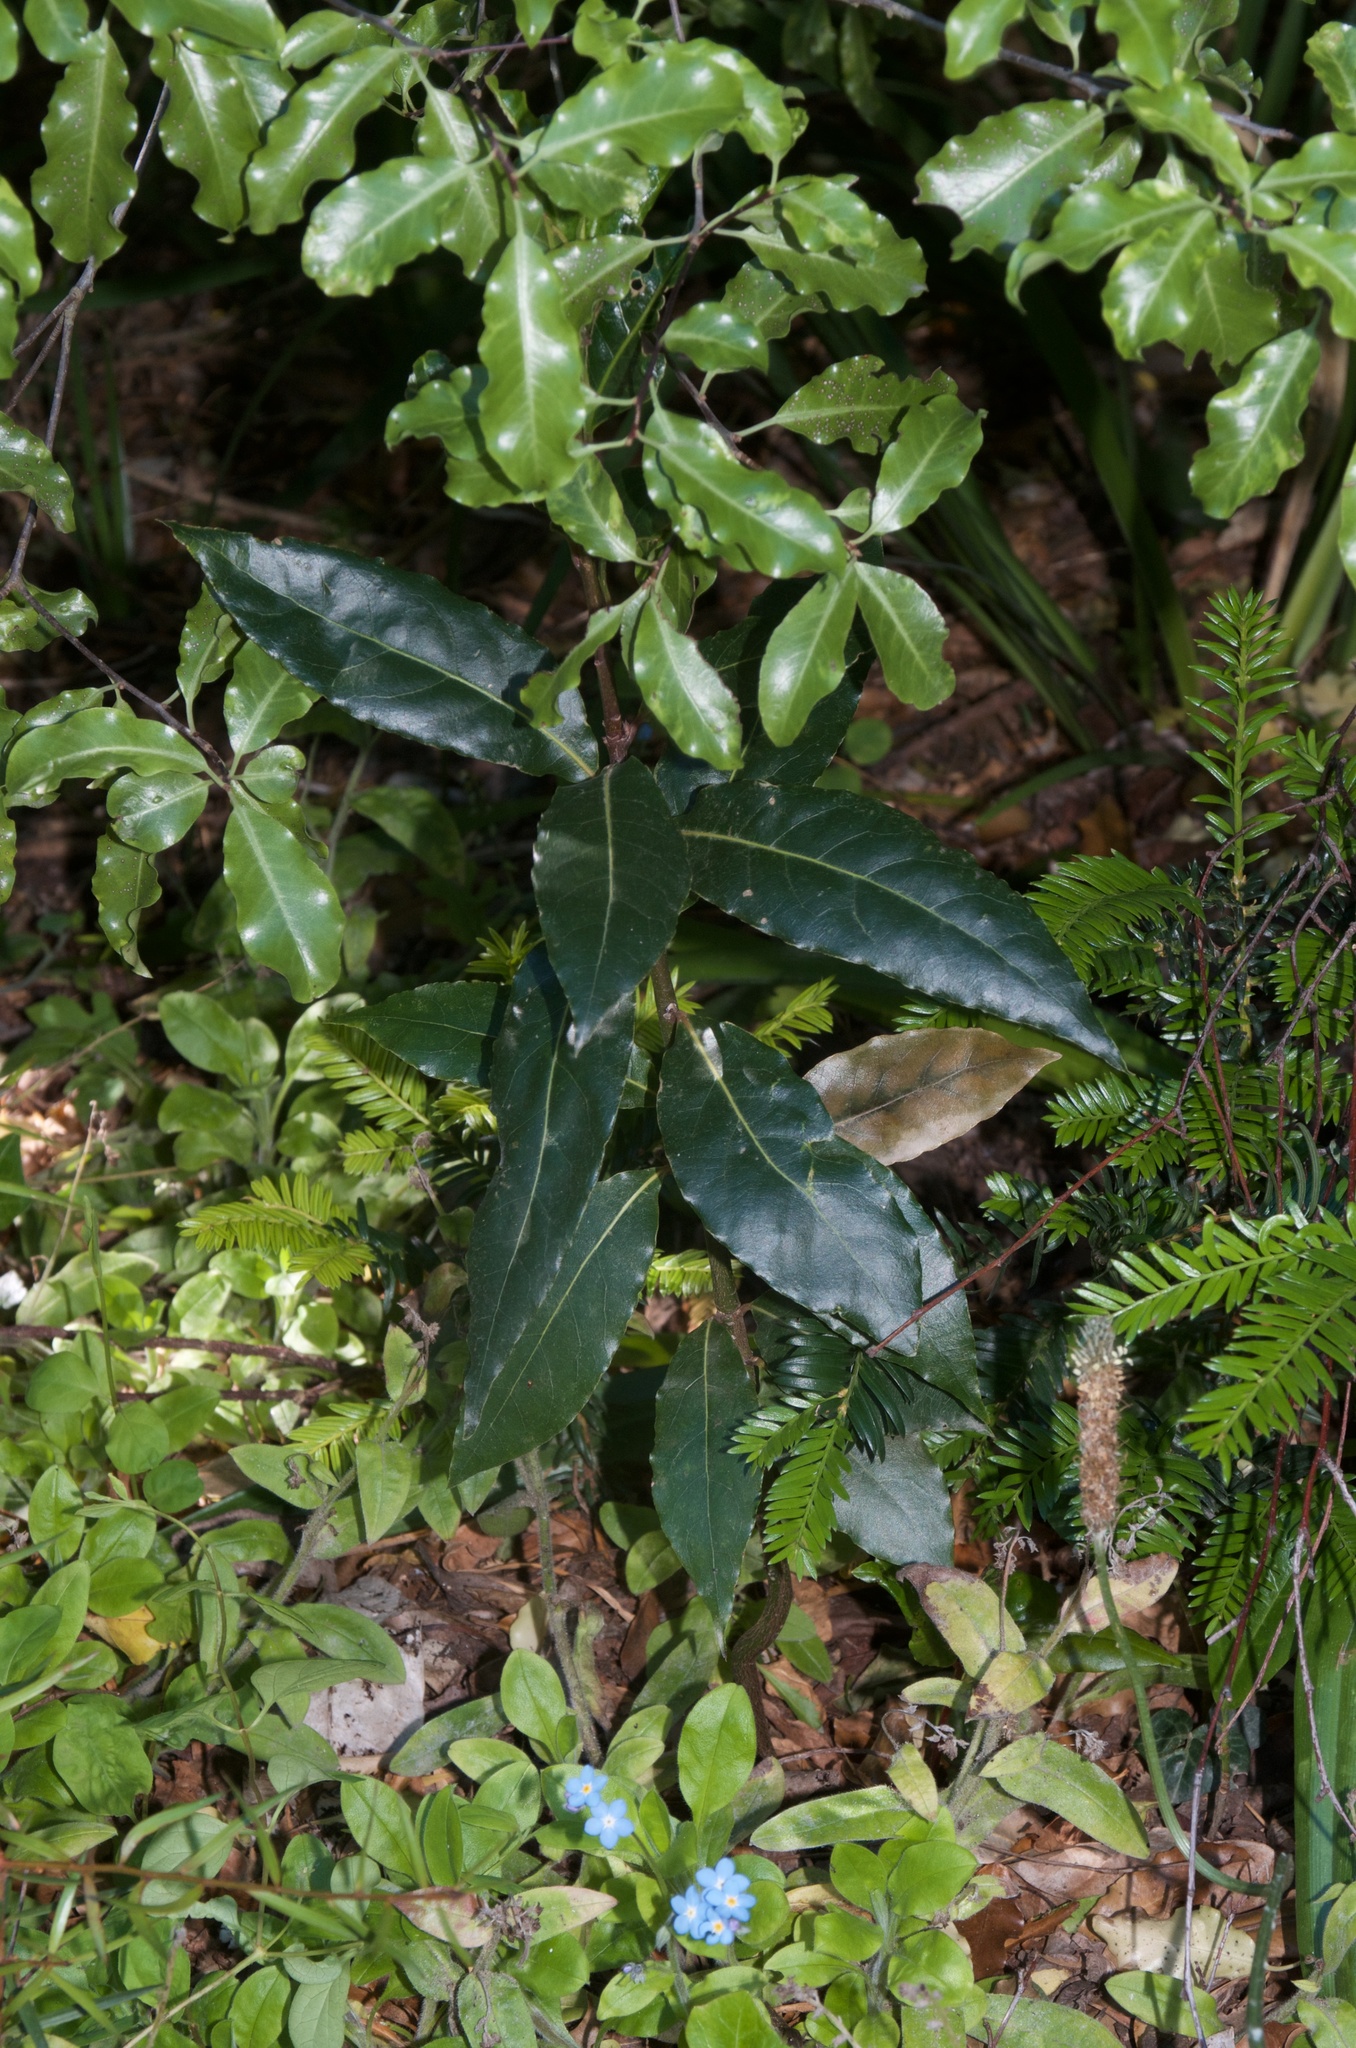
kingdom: Plantae
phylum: Tracheophyta
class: Magnoliopsida
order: Laurales
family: Lauraceae
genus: Laurus
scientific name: Laurus nobilis
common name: Bay
